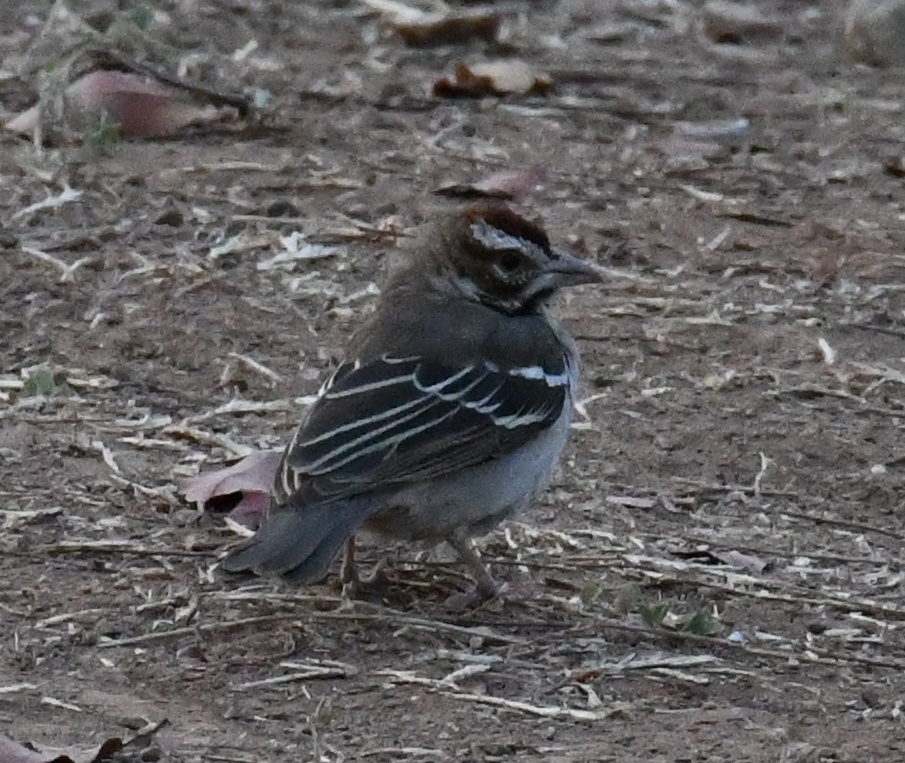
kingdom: Animalia
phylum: Chordata
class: Aves
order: Passeriformes
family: Passeridae
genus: Plocepasser
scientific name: Plocepasser superciliosus
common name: Chestnut-crowned sparrow-weaver
